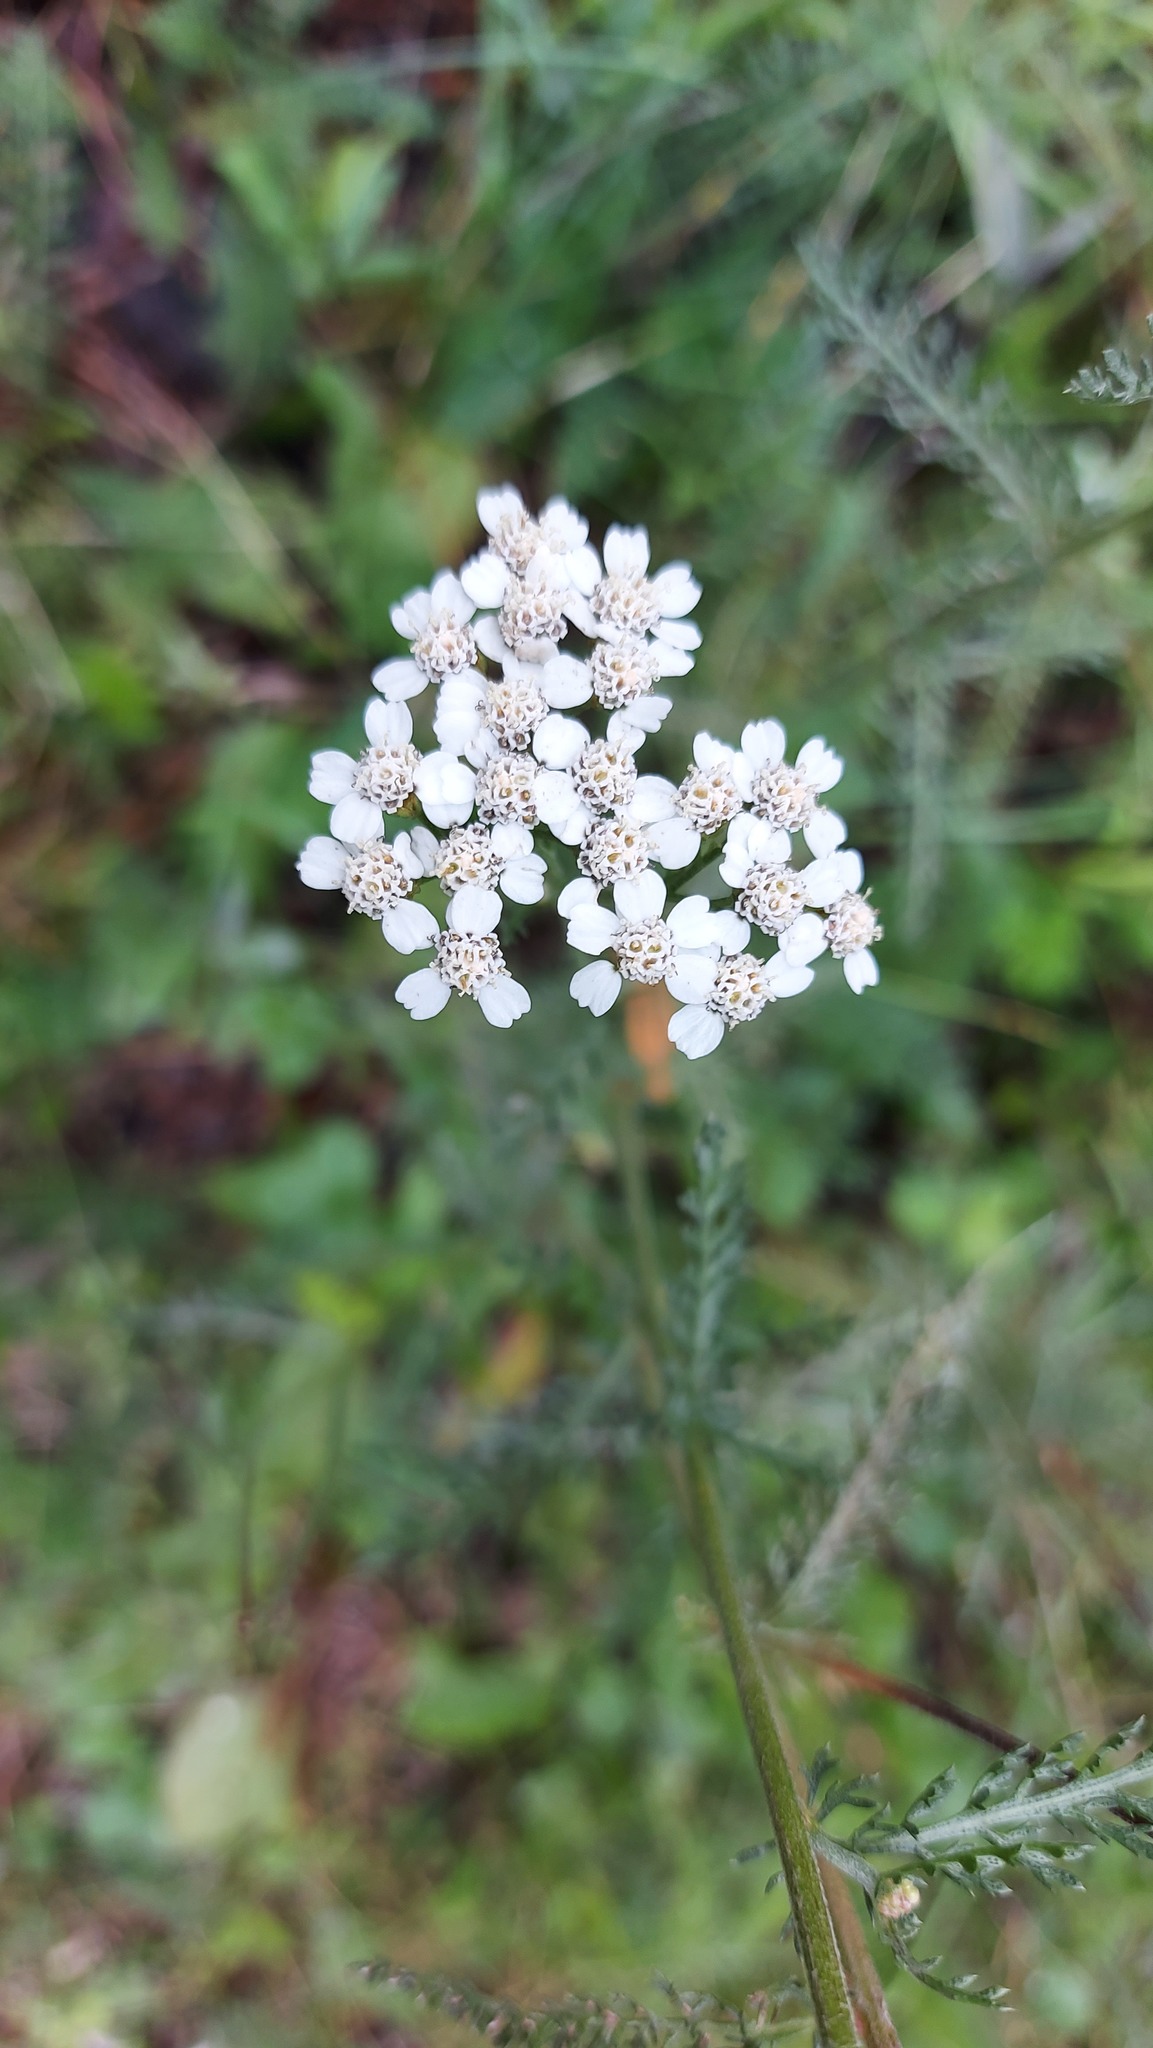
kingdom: Plantae
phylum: Tracheophyta
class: Magnoliopsida
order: Asterales
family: Asteraceae
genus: Achillea
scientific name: Achillea millefolium
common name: Yarrow
